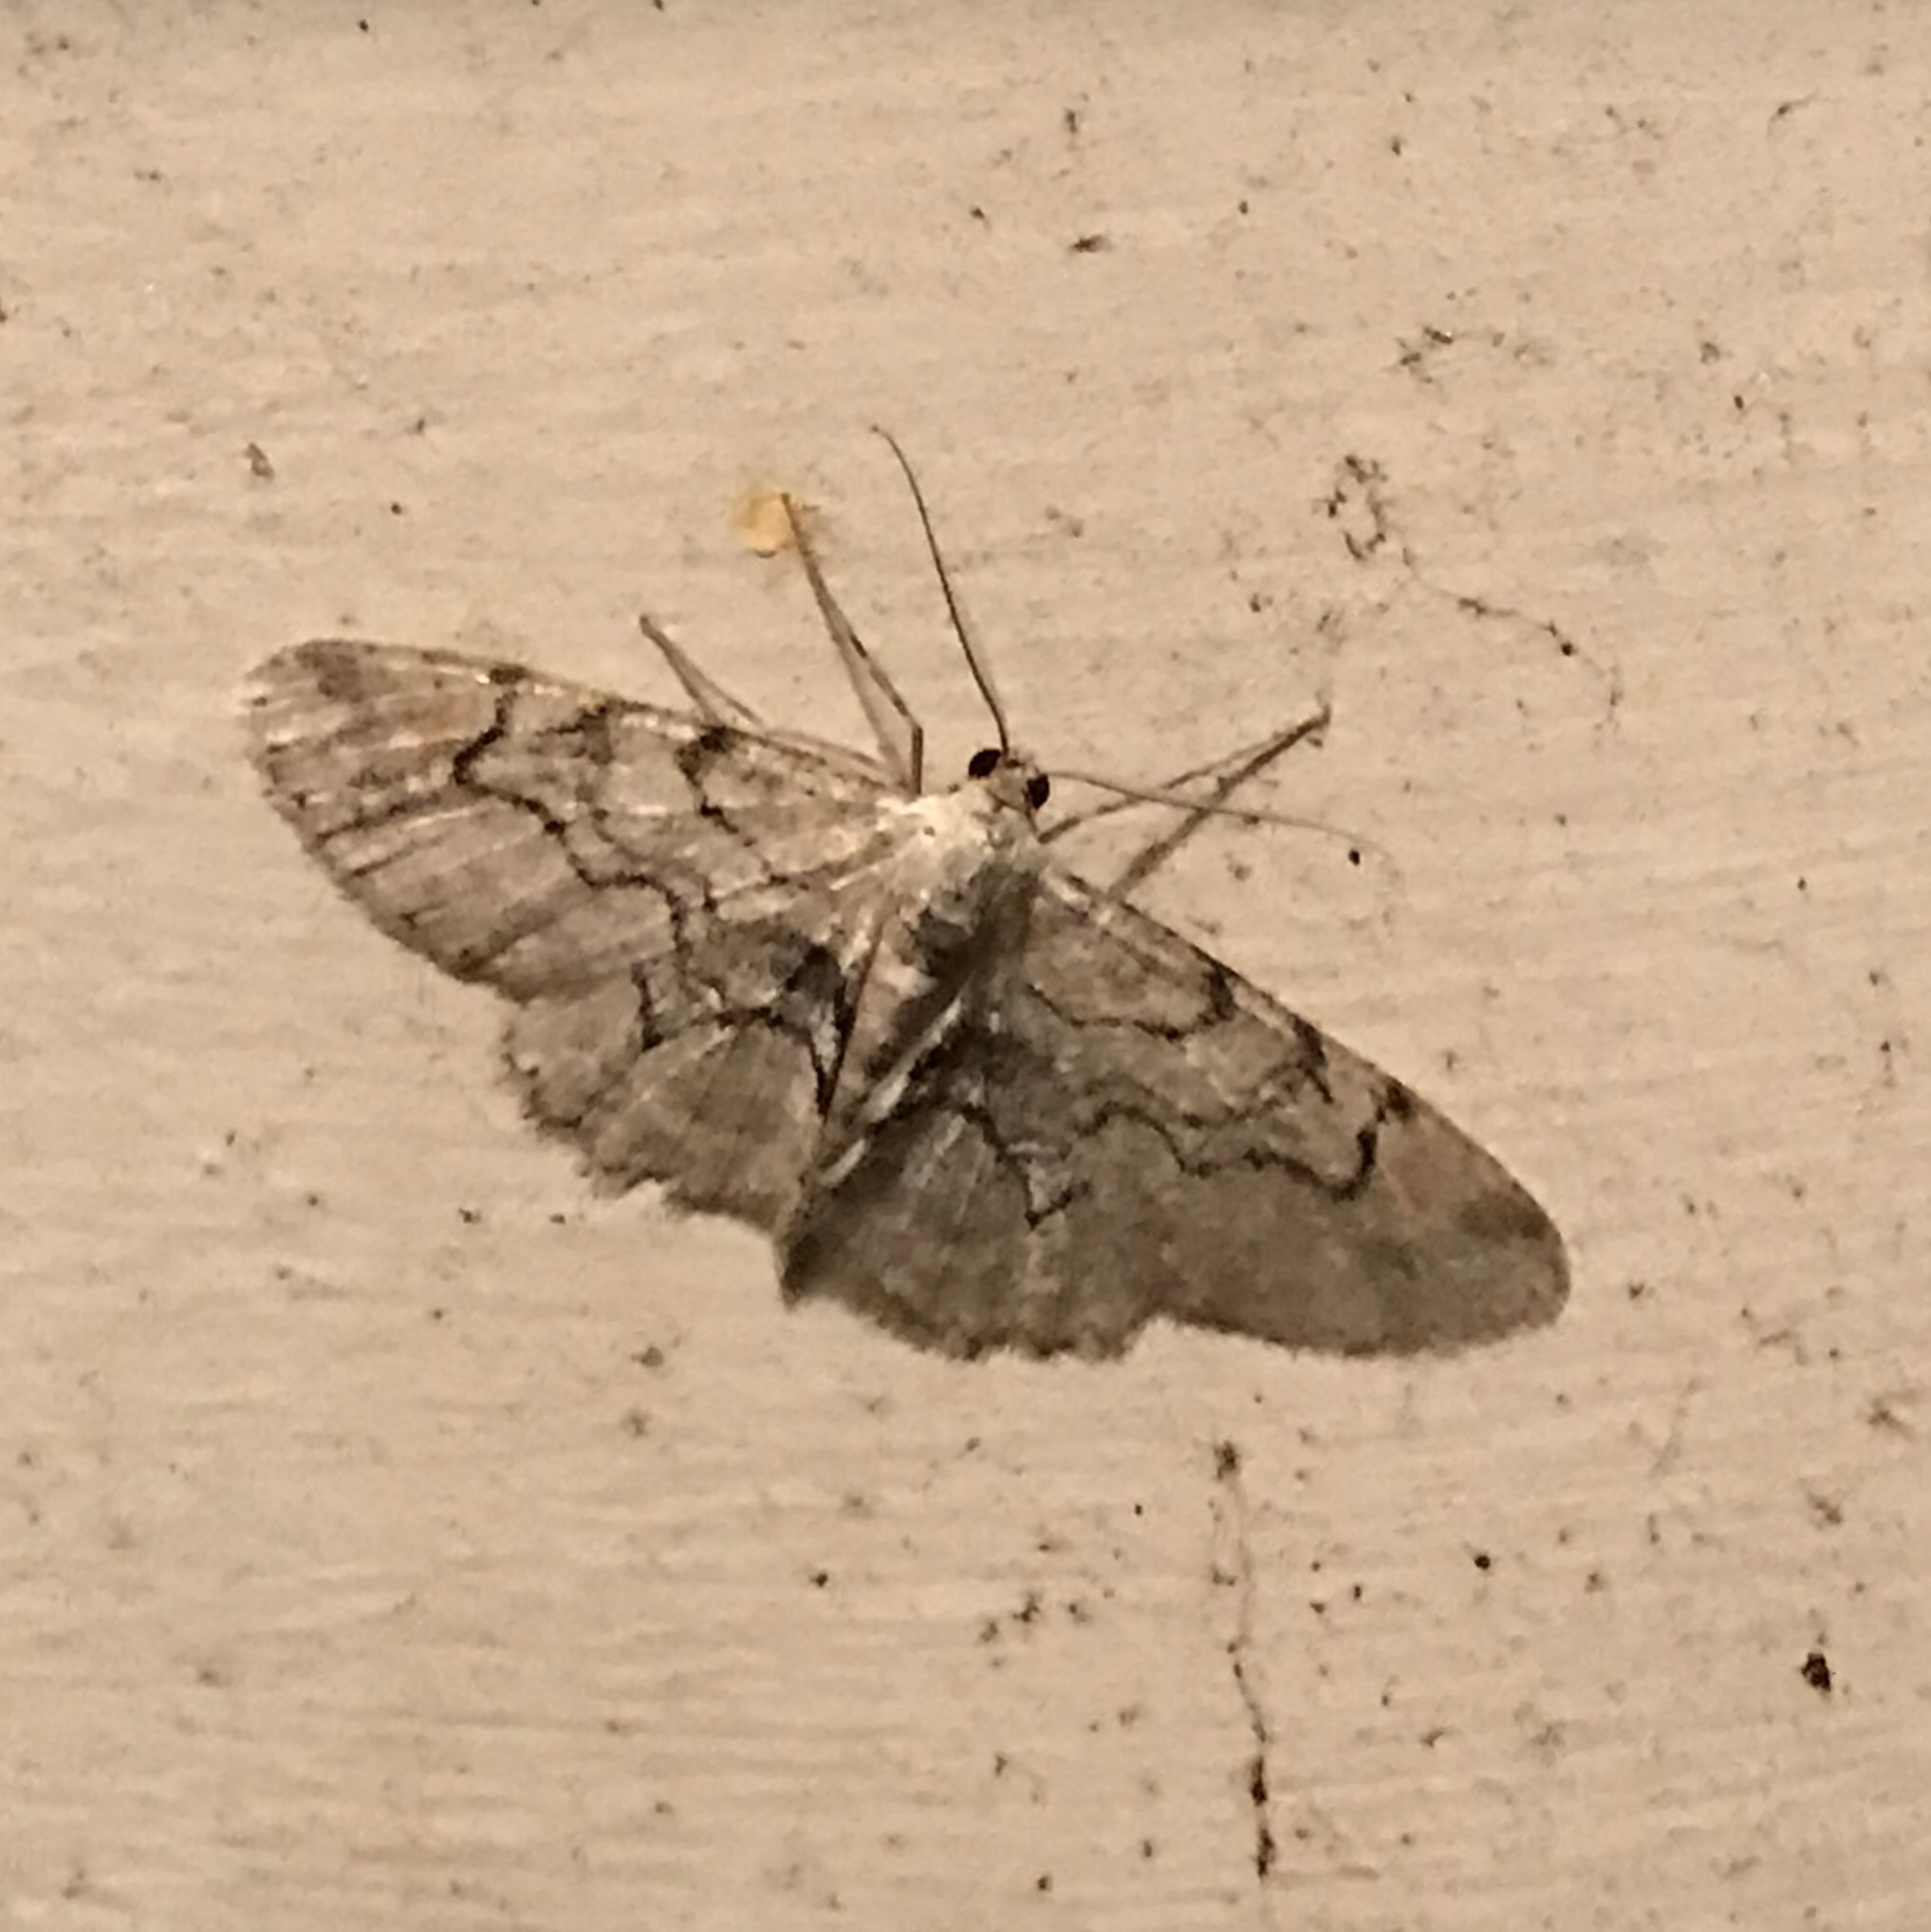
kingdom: Animalia
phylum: Arthropoda
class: Insecta
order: Lepidoptera
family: Geometridae
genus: Iridopsis
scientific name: Iridopsis larvaria
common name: Bent-line gray
